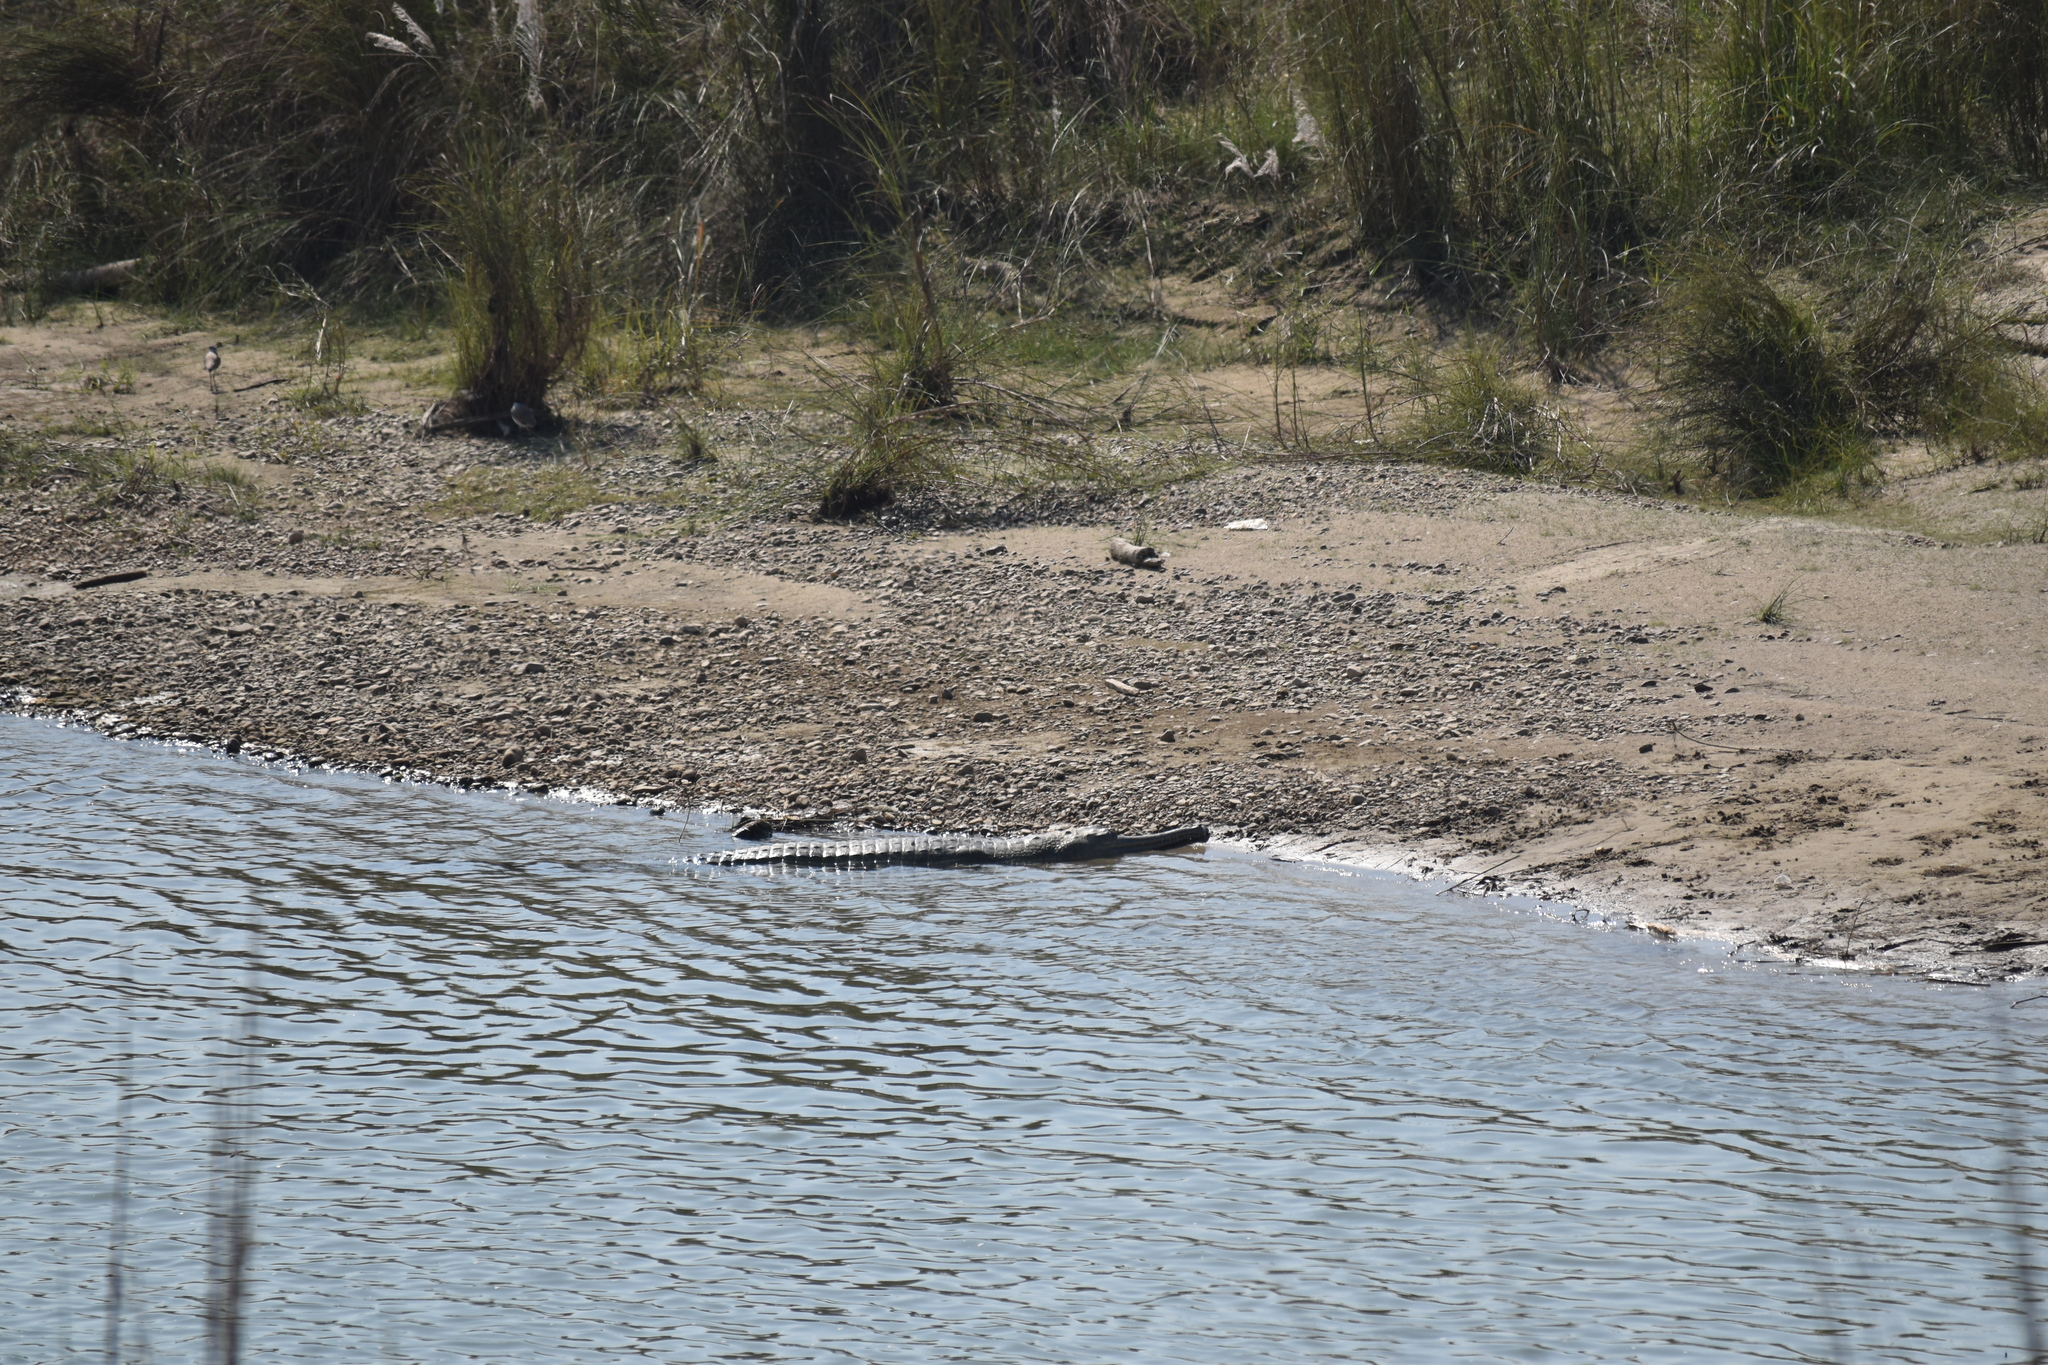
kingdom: Animalia
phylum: Chordata
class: Crocodylia
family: Gavialidae
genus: Gavialis
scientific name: Gavialis gangeticus
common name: Gharial
